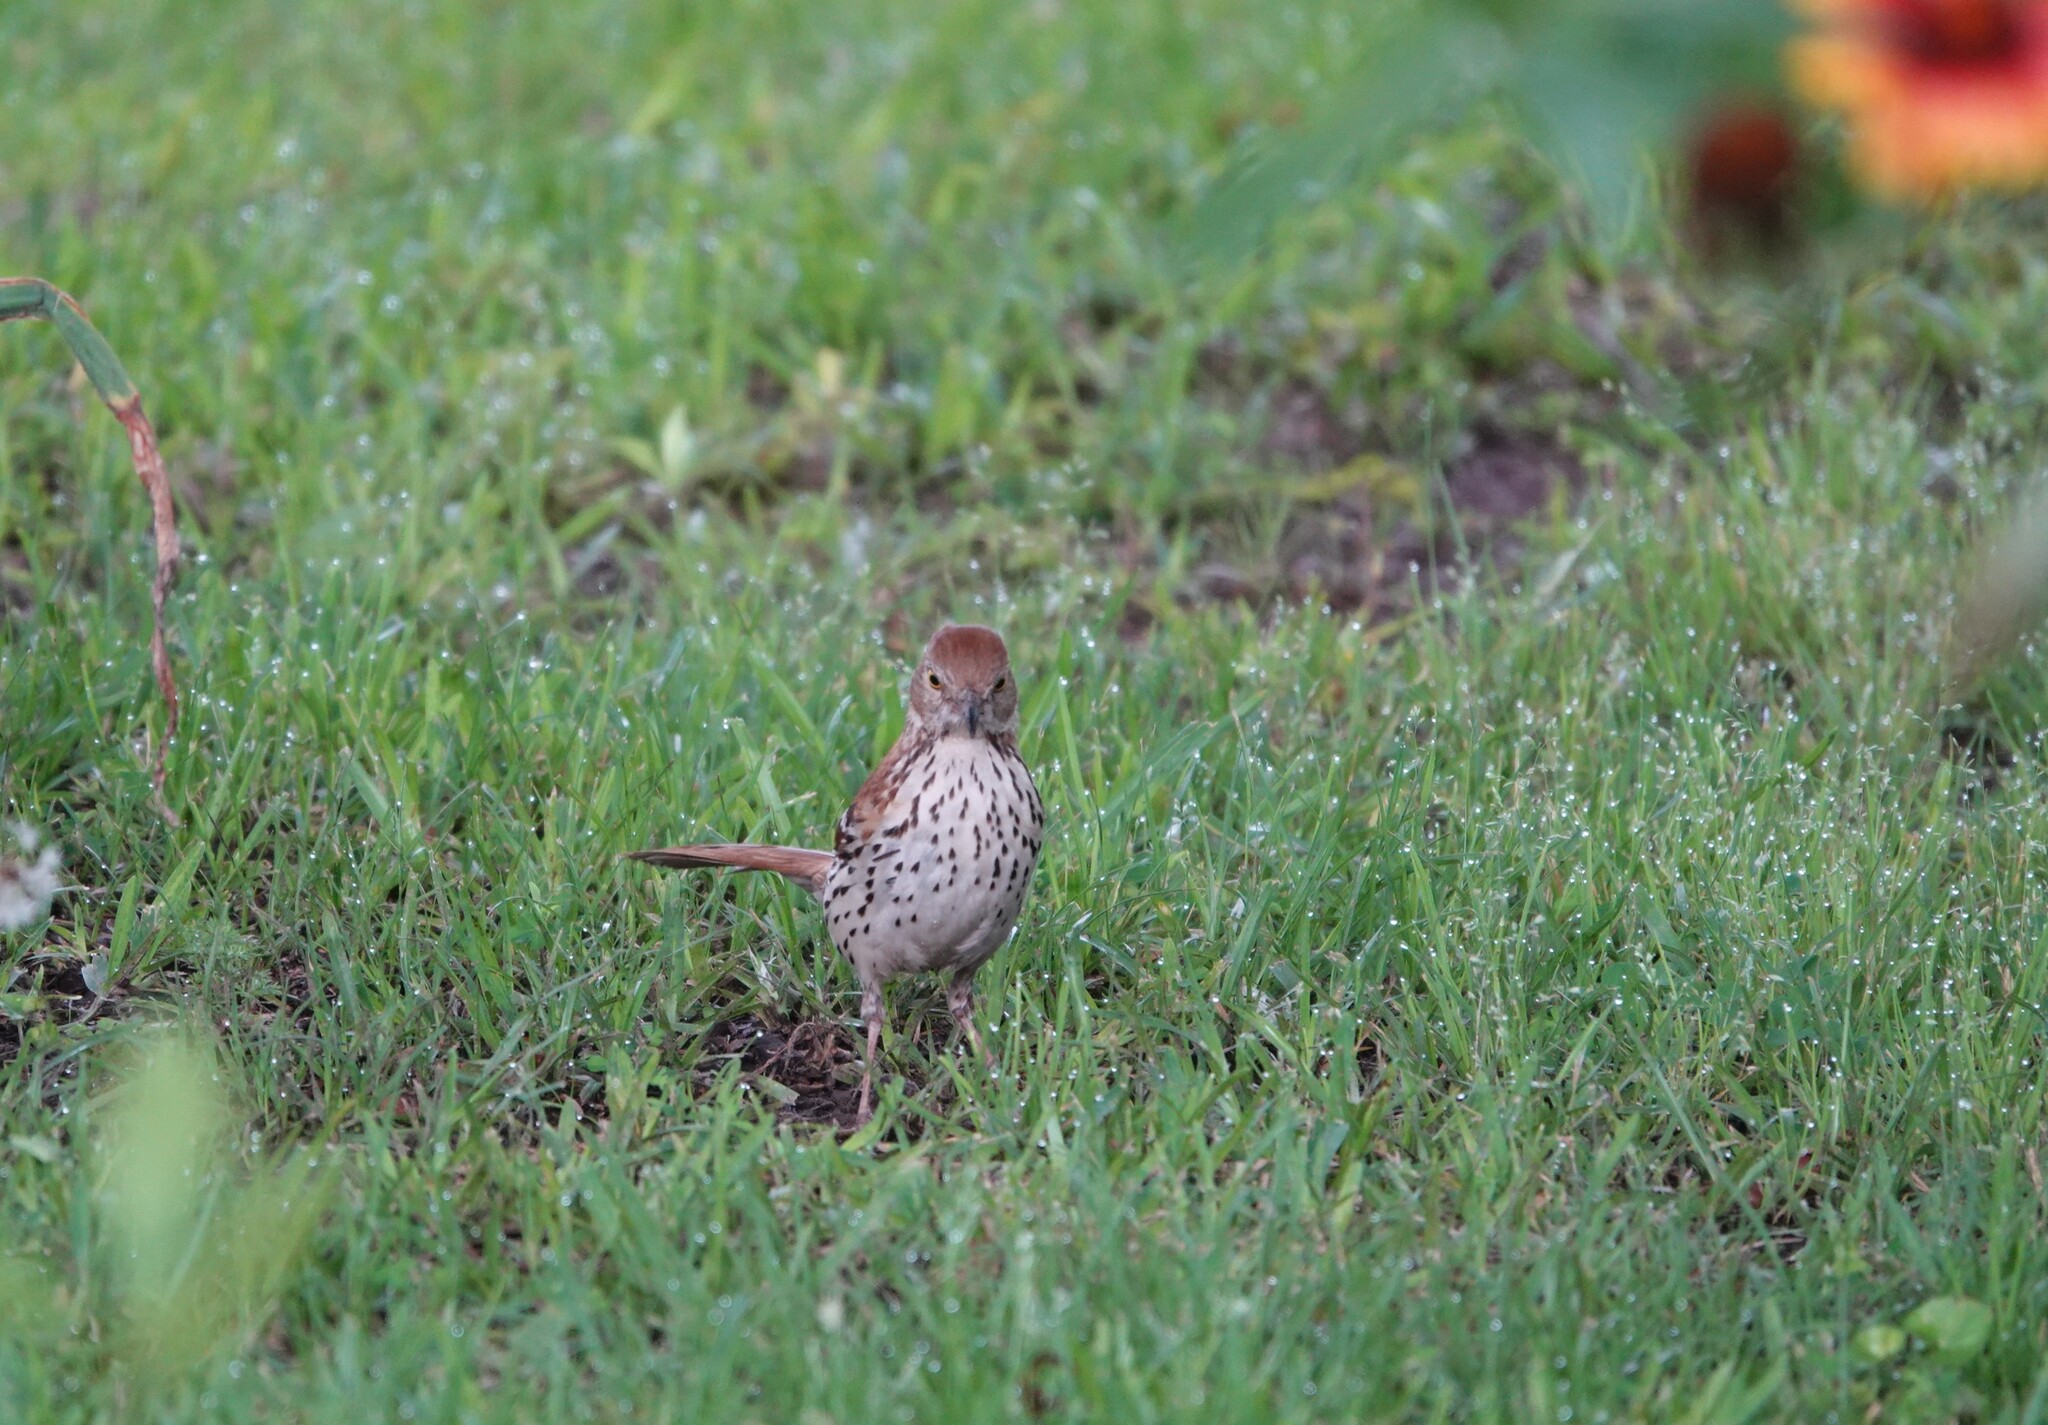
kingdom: Animalia
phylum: Chordata
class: Aves
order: Passeriformes
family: Mimidae
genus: Toxostoma
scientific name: Toxostoma rufum
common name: Brown thrasher
